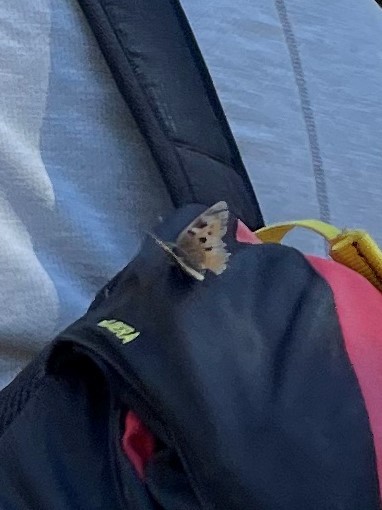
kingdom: Animalia
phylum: Arthropoda
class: Insecta
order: Lepidoptera
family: Nymphalidae
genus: Nymphalis
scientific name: Nymphalis californica
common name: California tortoiseshell
